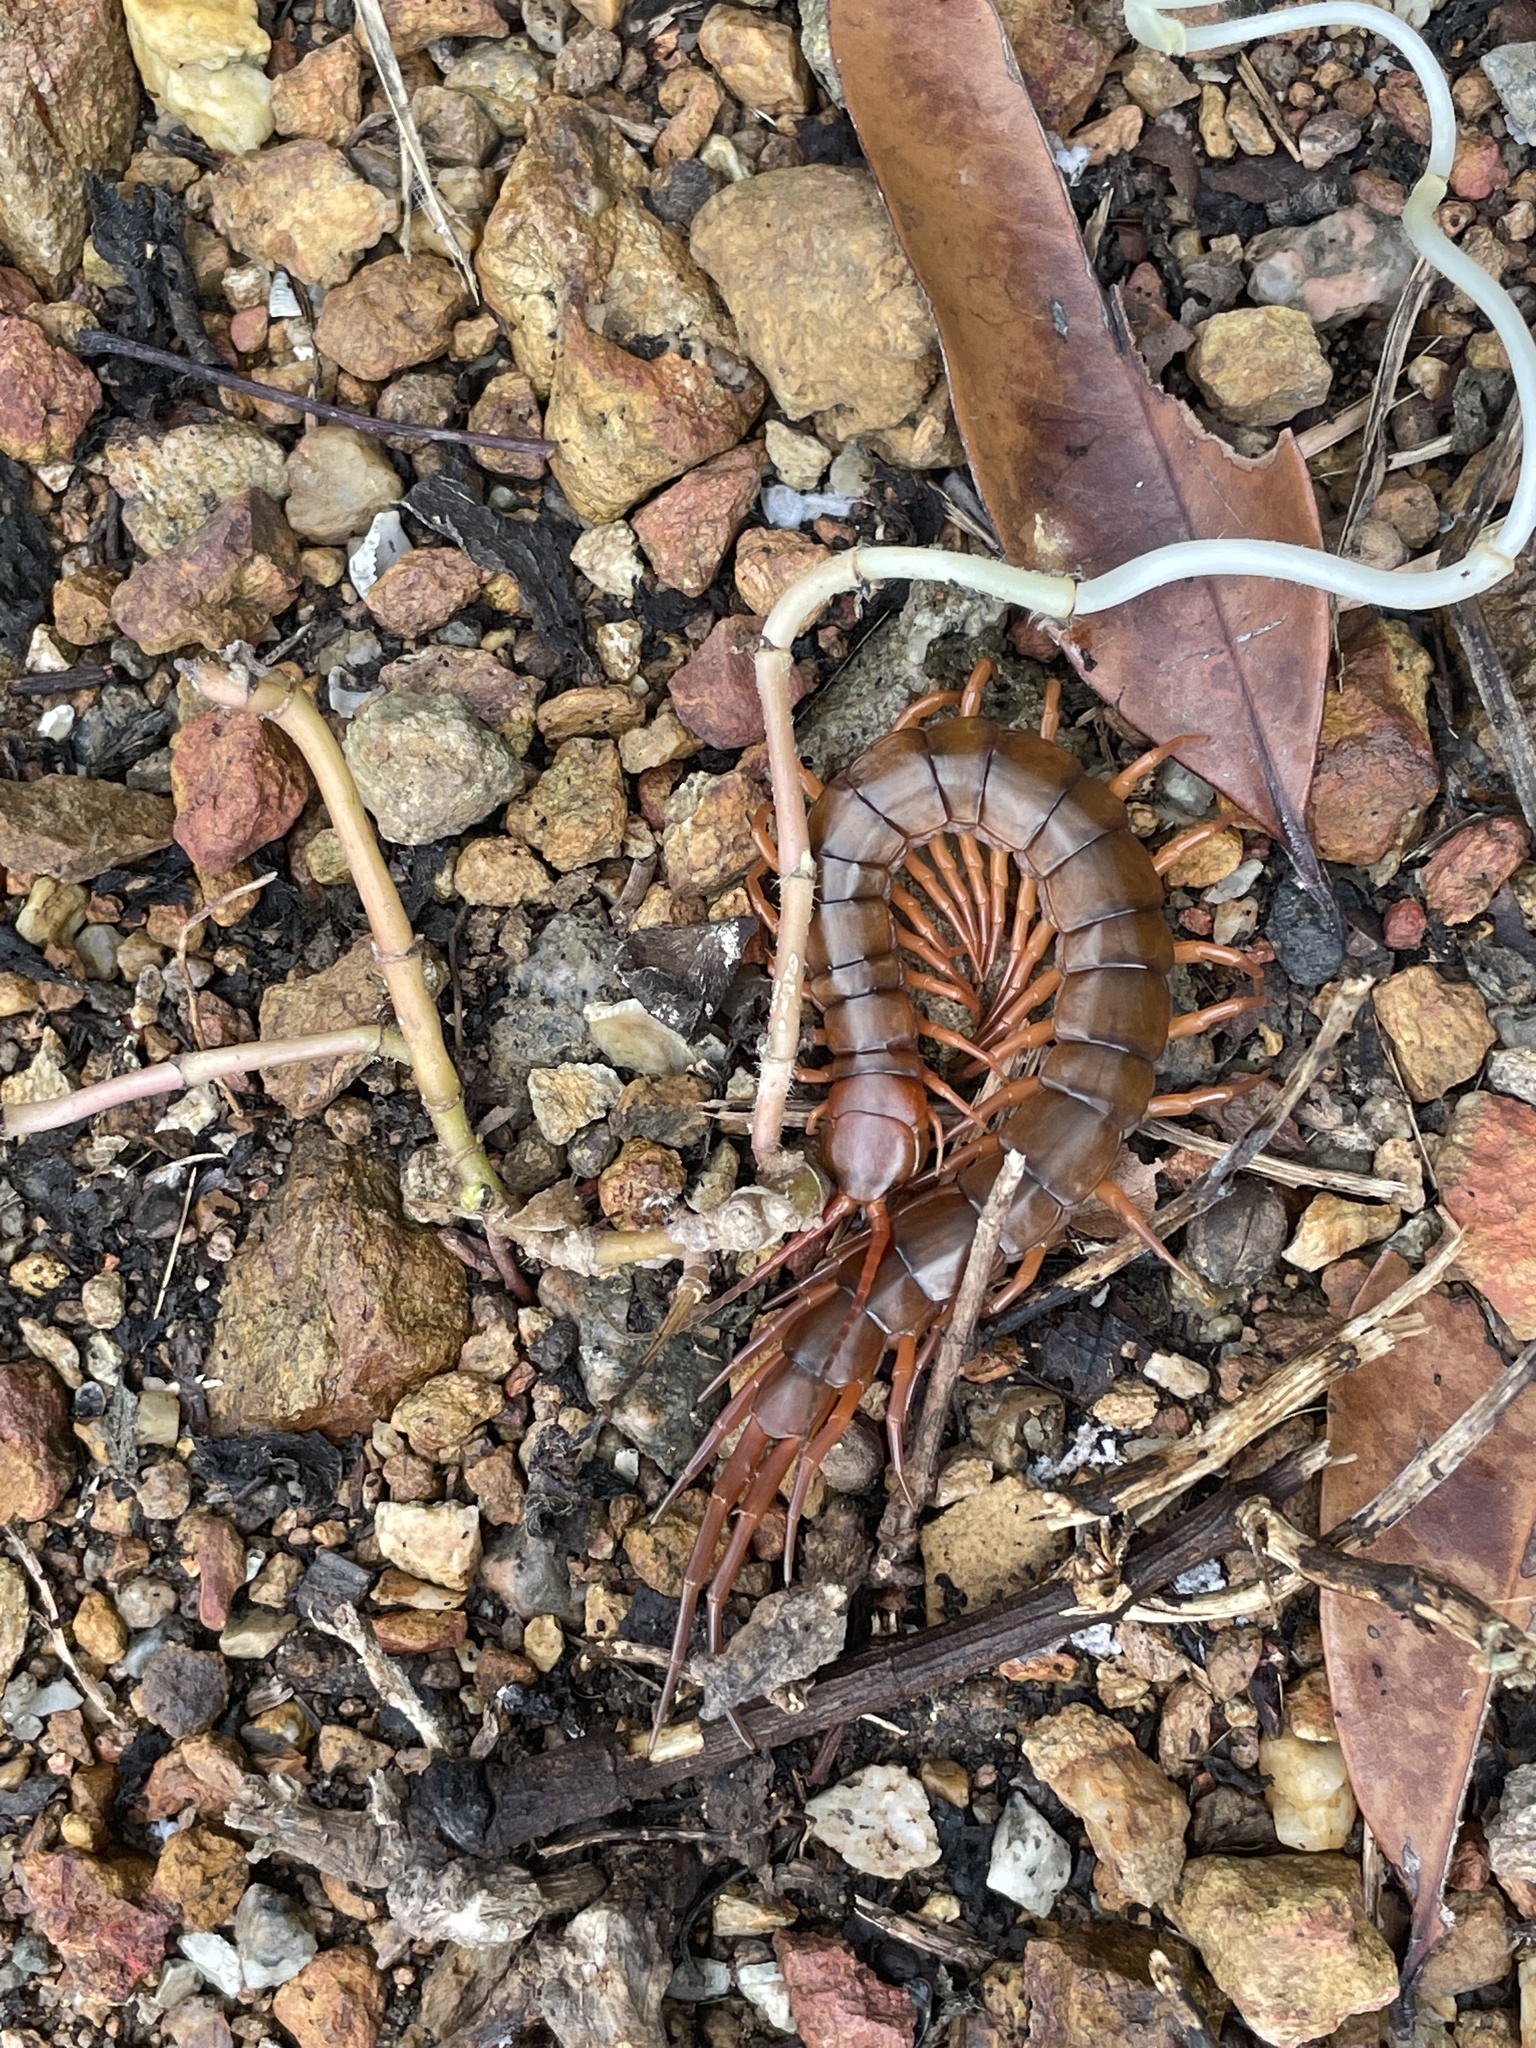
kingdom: Animalia
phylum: Arthropoda
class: Chilopoda
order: Scolopendromorpha
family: Scolopendridae
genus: Scolopendra
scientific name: Scolopendra dehaani
